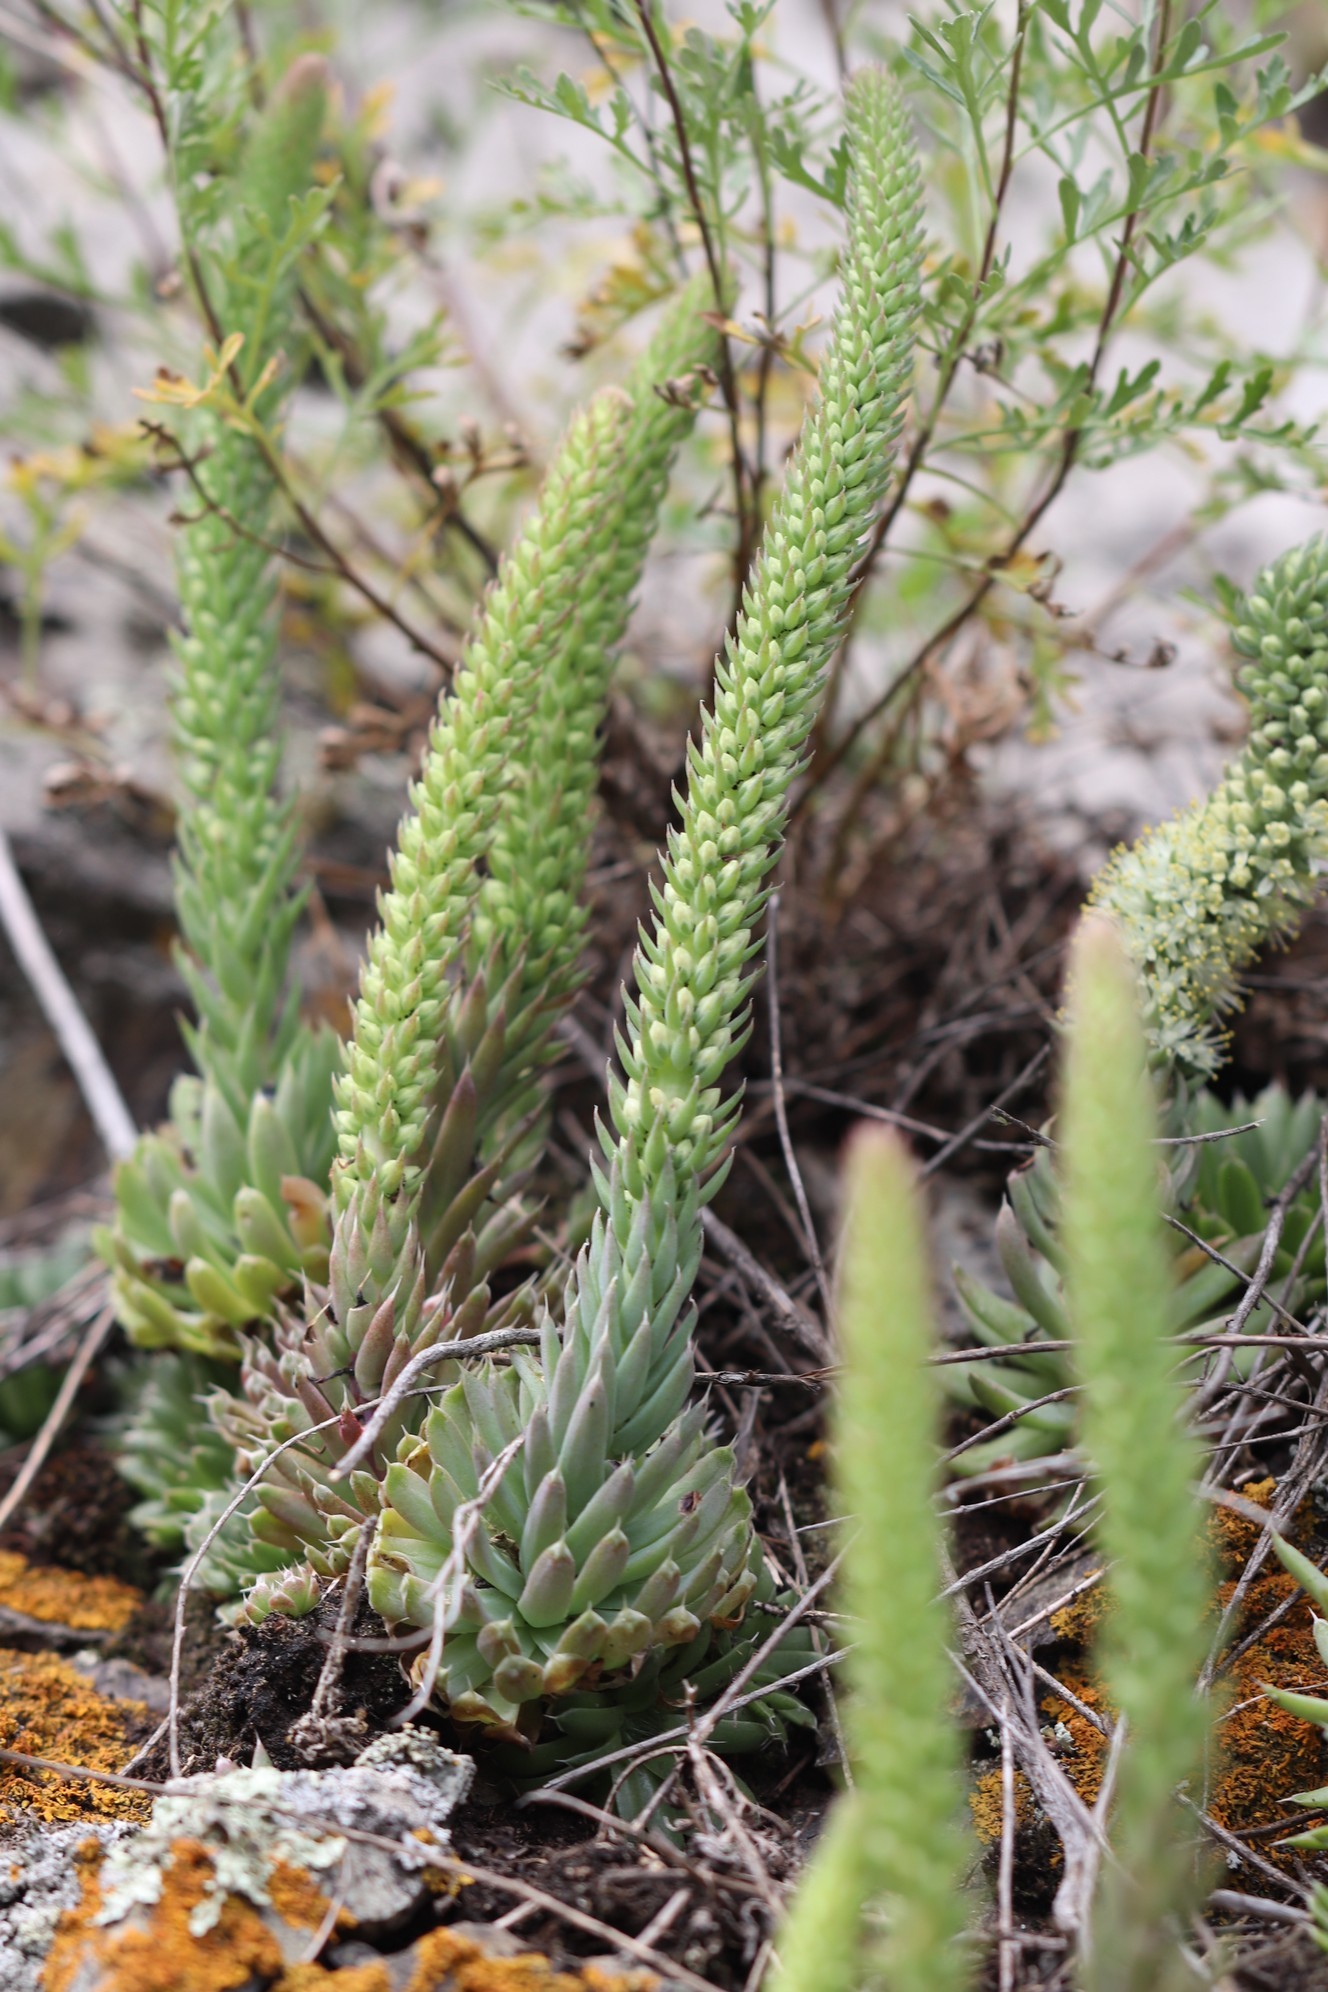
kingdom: Plantae
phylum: Tracheophyta
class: Magnoliopsida
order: Saxifragales
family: Crassulaceae
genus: Orostachys
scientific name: Orostachys spinosa
